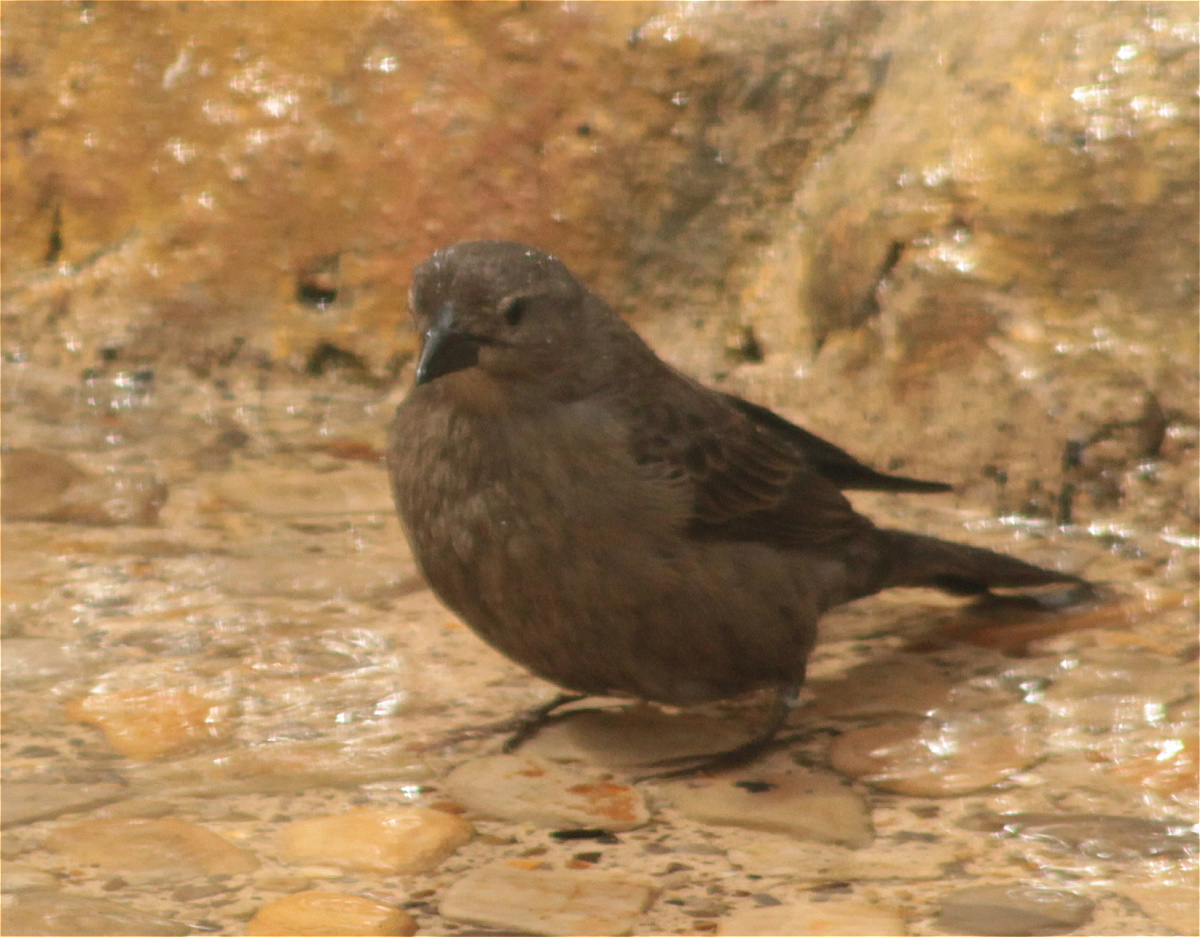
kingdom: Animalia
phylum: Chordata
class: Aves
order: Passeriformes
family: Icteridae
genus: Molothrus
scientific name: Molothrus bonariensis
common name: Shiny cowbird
